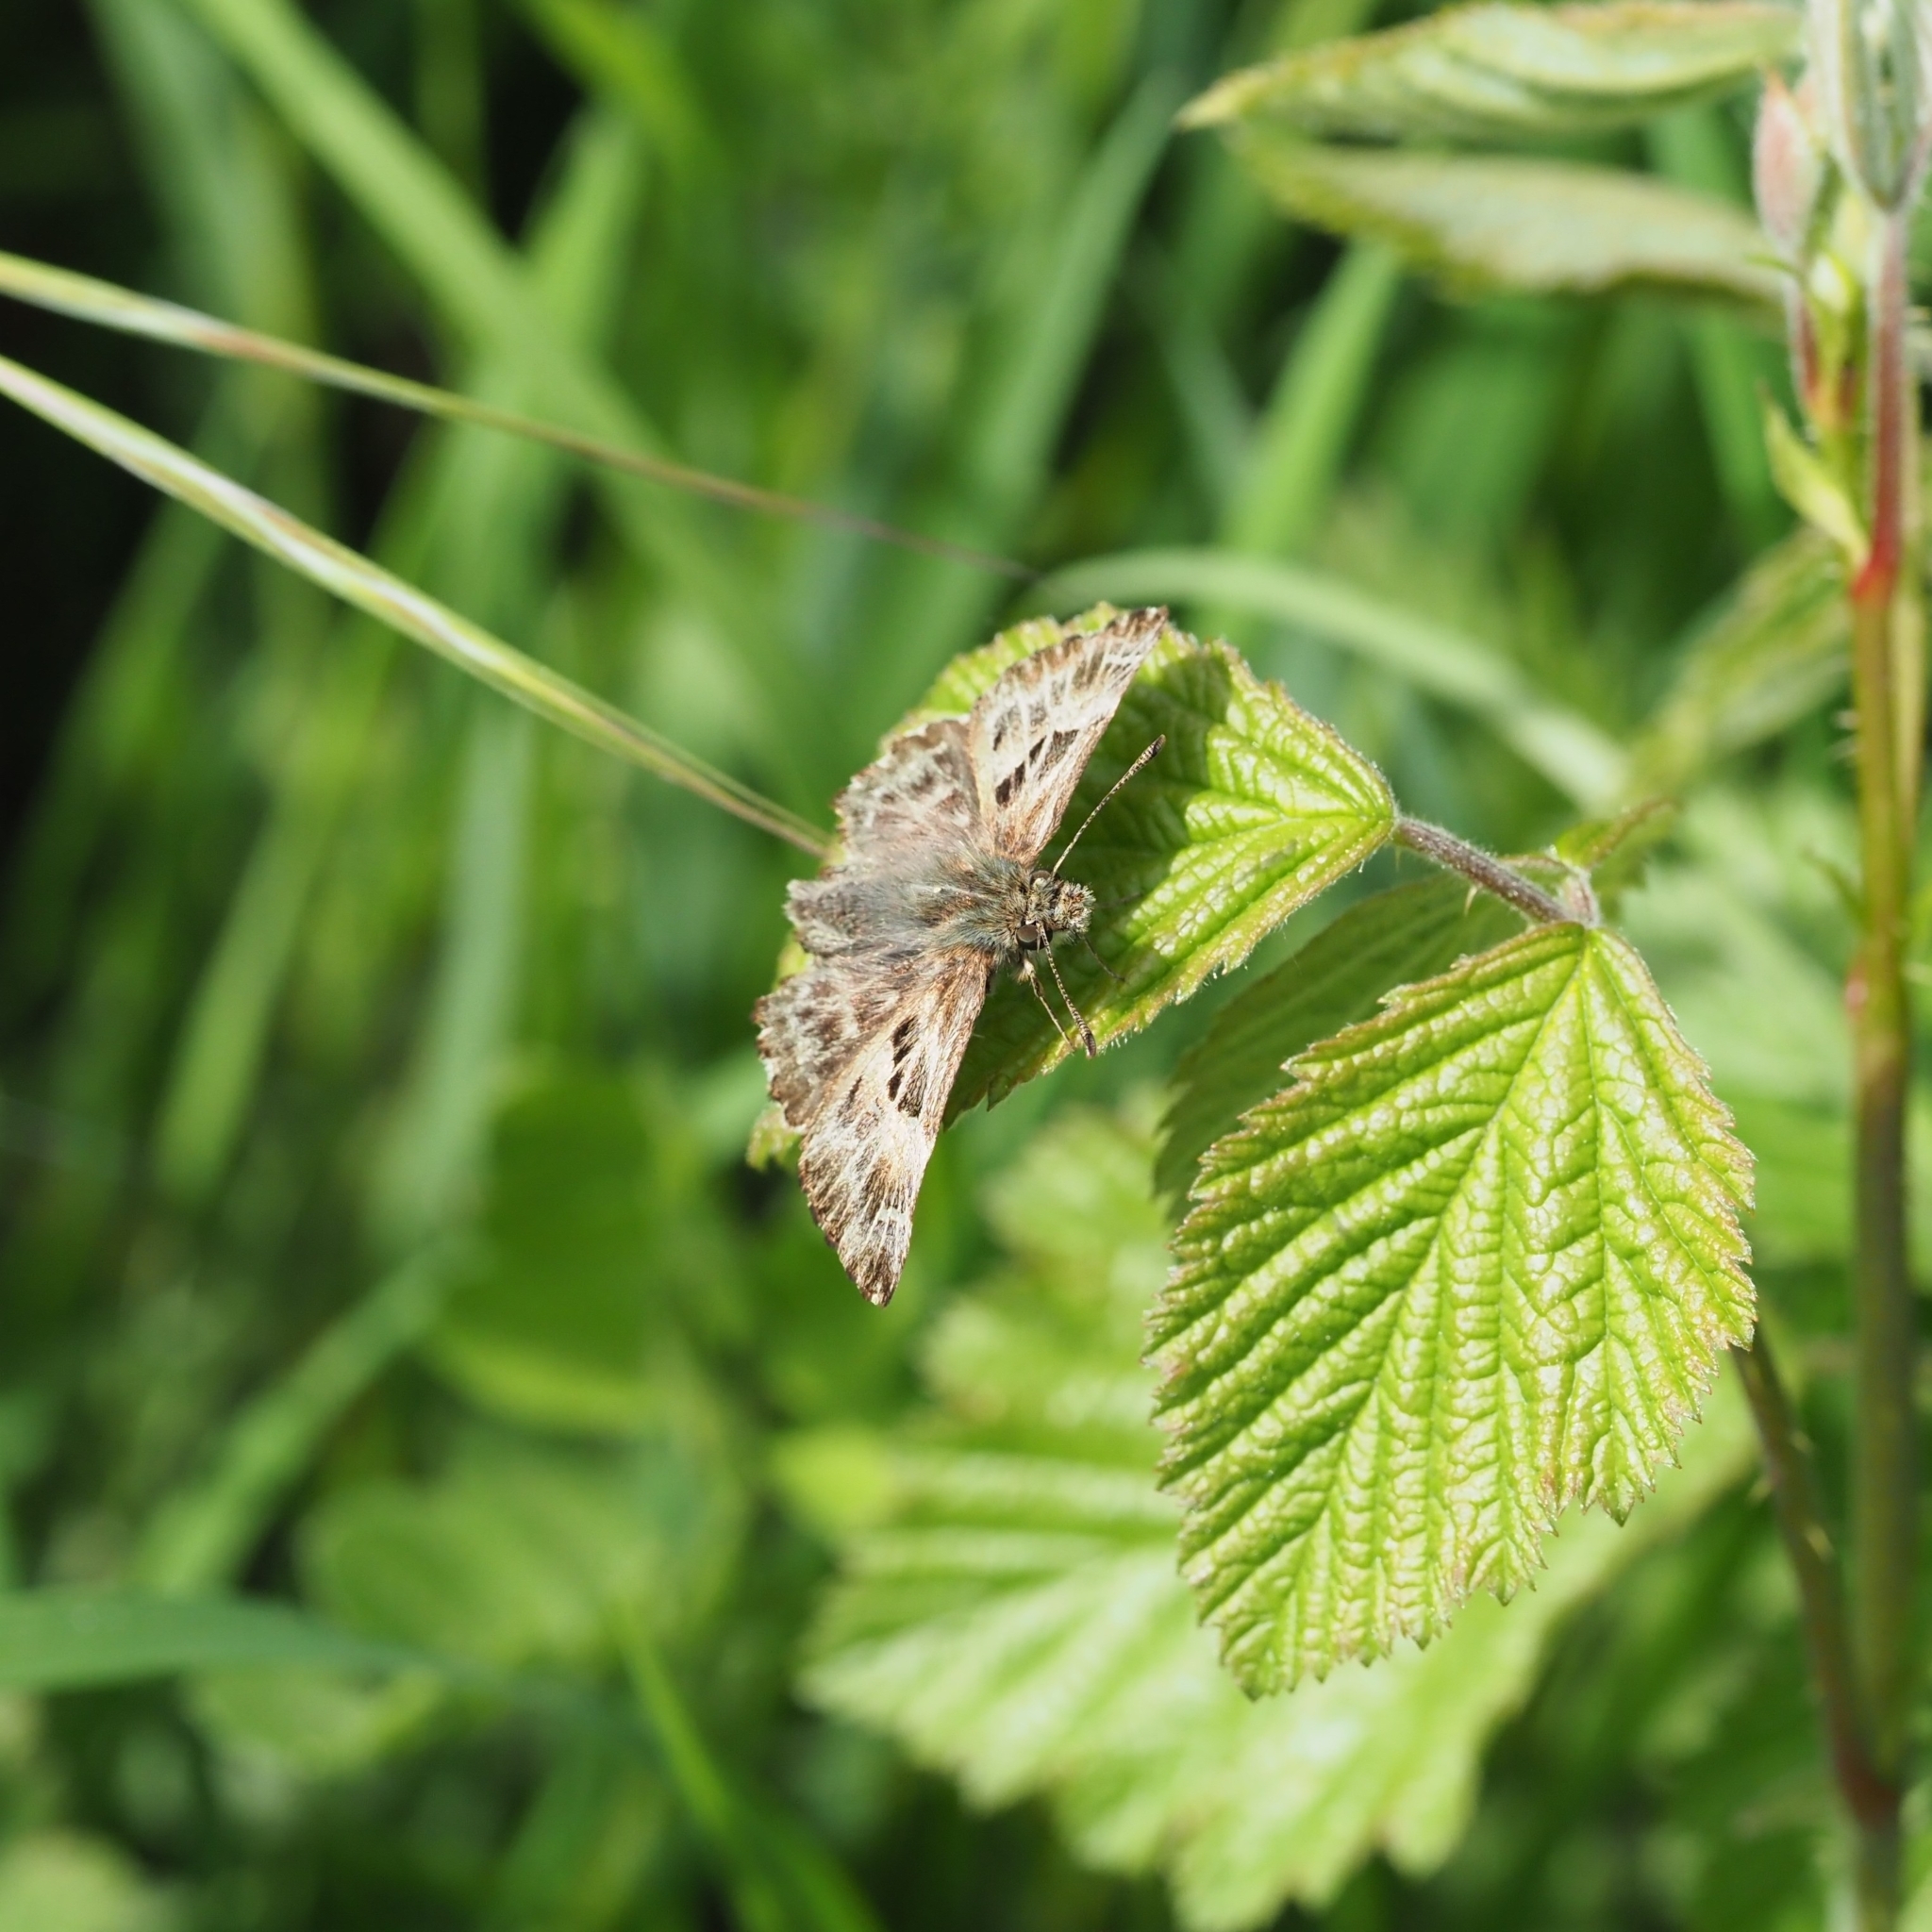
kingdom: Animalia
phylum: Arthropoda
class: Insecta
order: Lepidoptera
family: Hesperiidae
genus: Carcharodus
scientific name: Carcharodus alceae
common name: Mallow skipper
